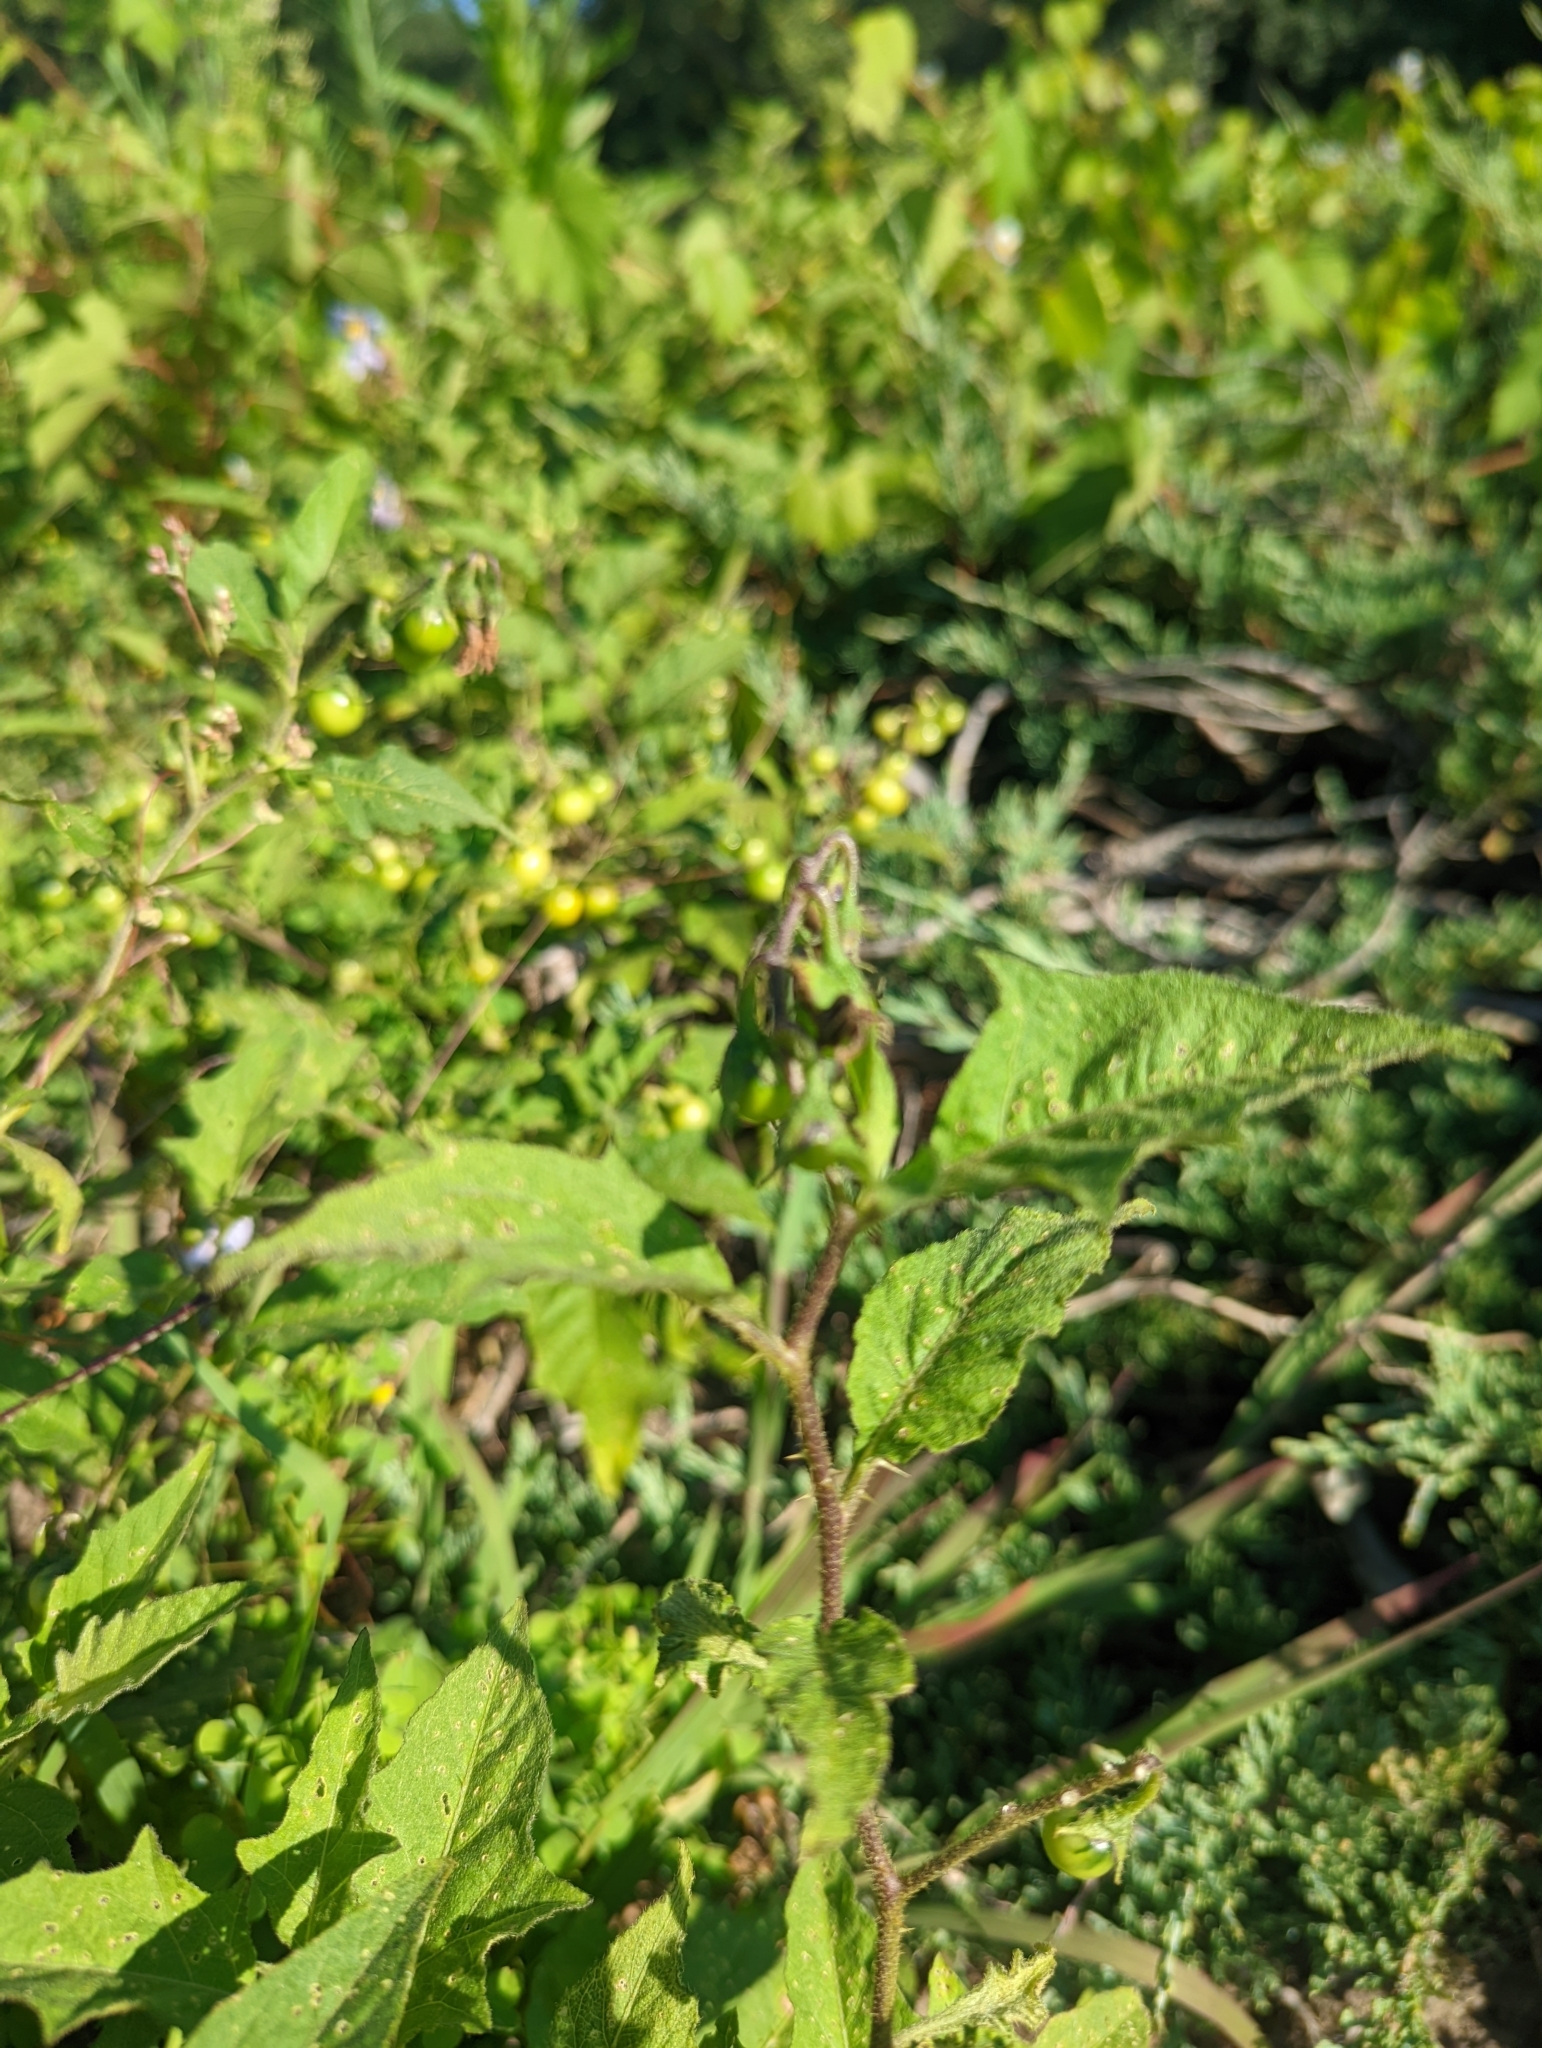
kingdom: Plantae
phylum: Tracheophyta
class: Magnoliopsida
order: Solanales
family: Solanaceae
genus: Solanum
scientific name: Solanum carolinense
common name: Horse-nettle
